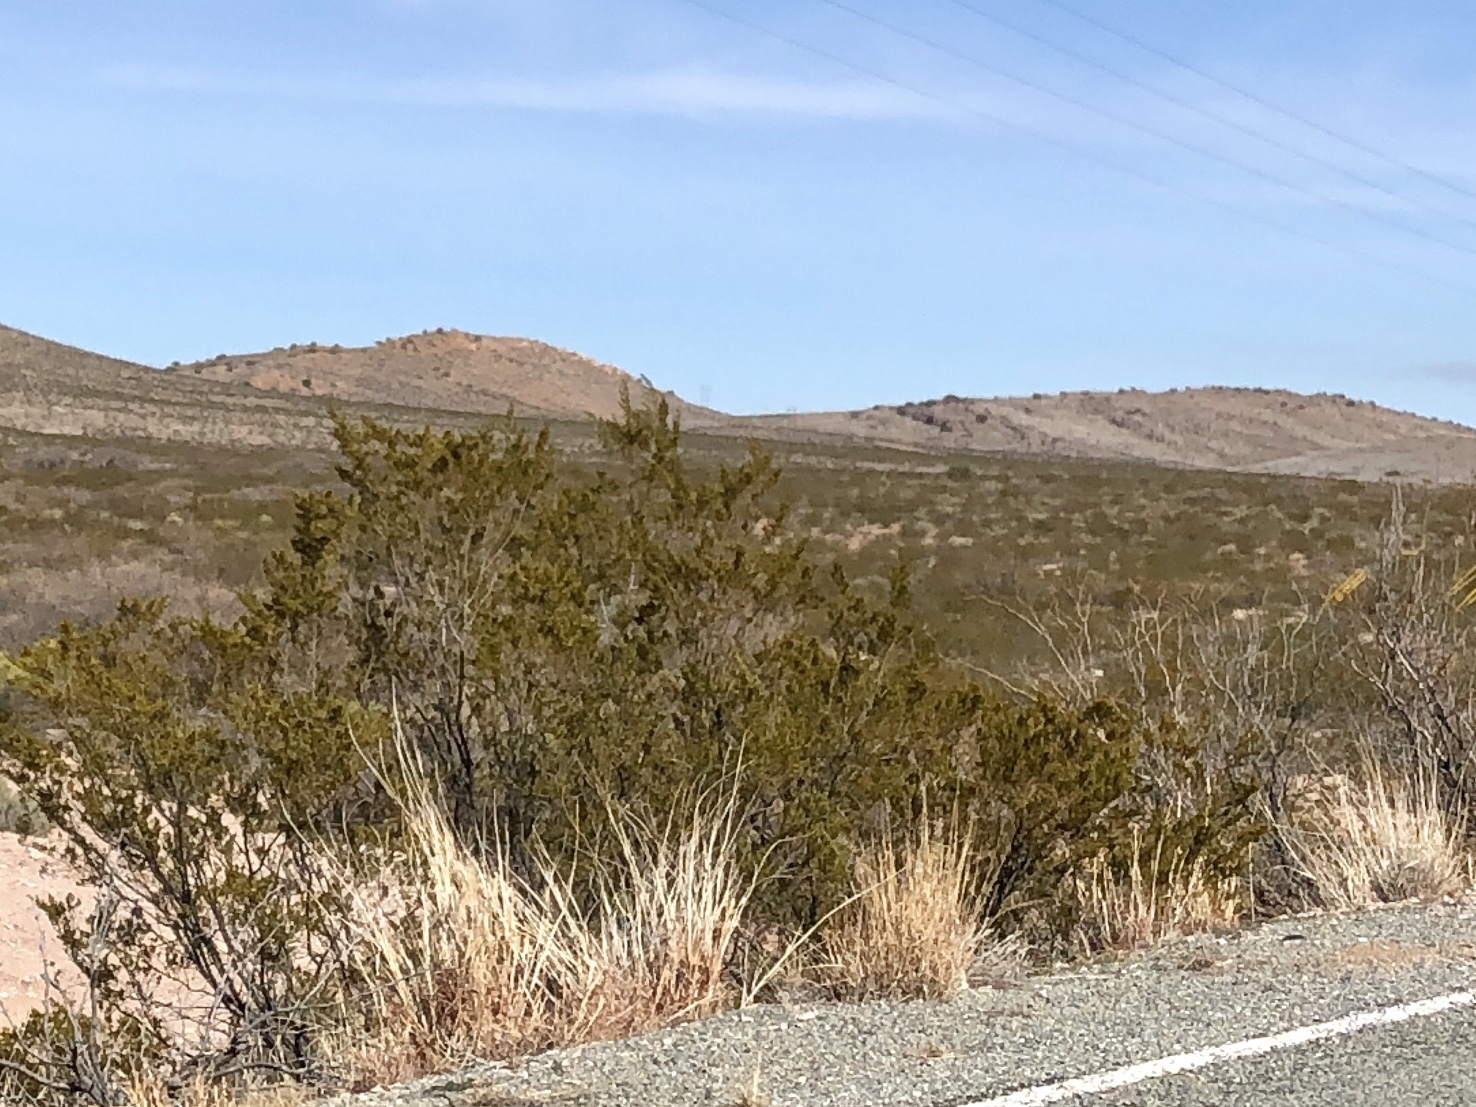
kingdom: Plantae
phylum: Tracheophyta
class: Magnoliopsida
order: Zygophyllales
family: Zygophyllaceae
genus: Larrea
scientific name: Larrea tridentata
